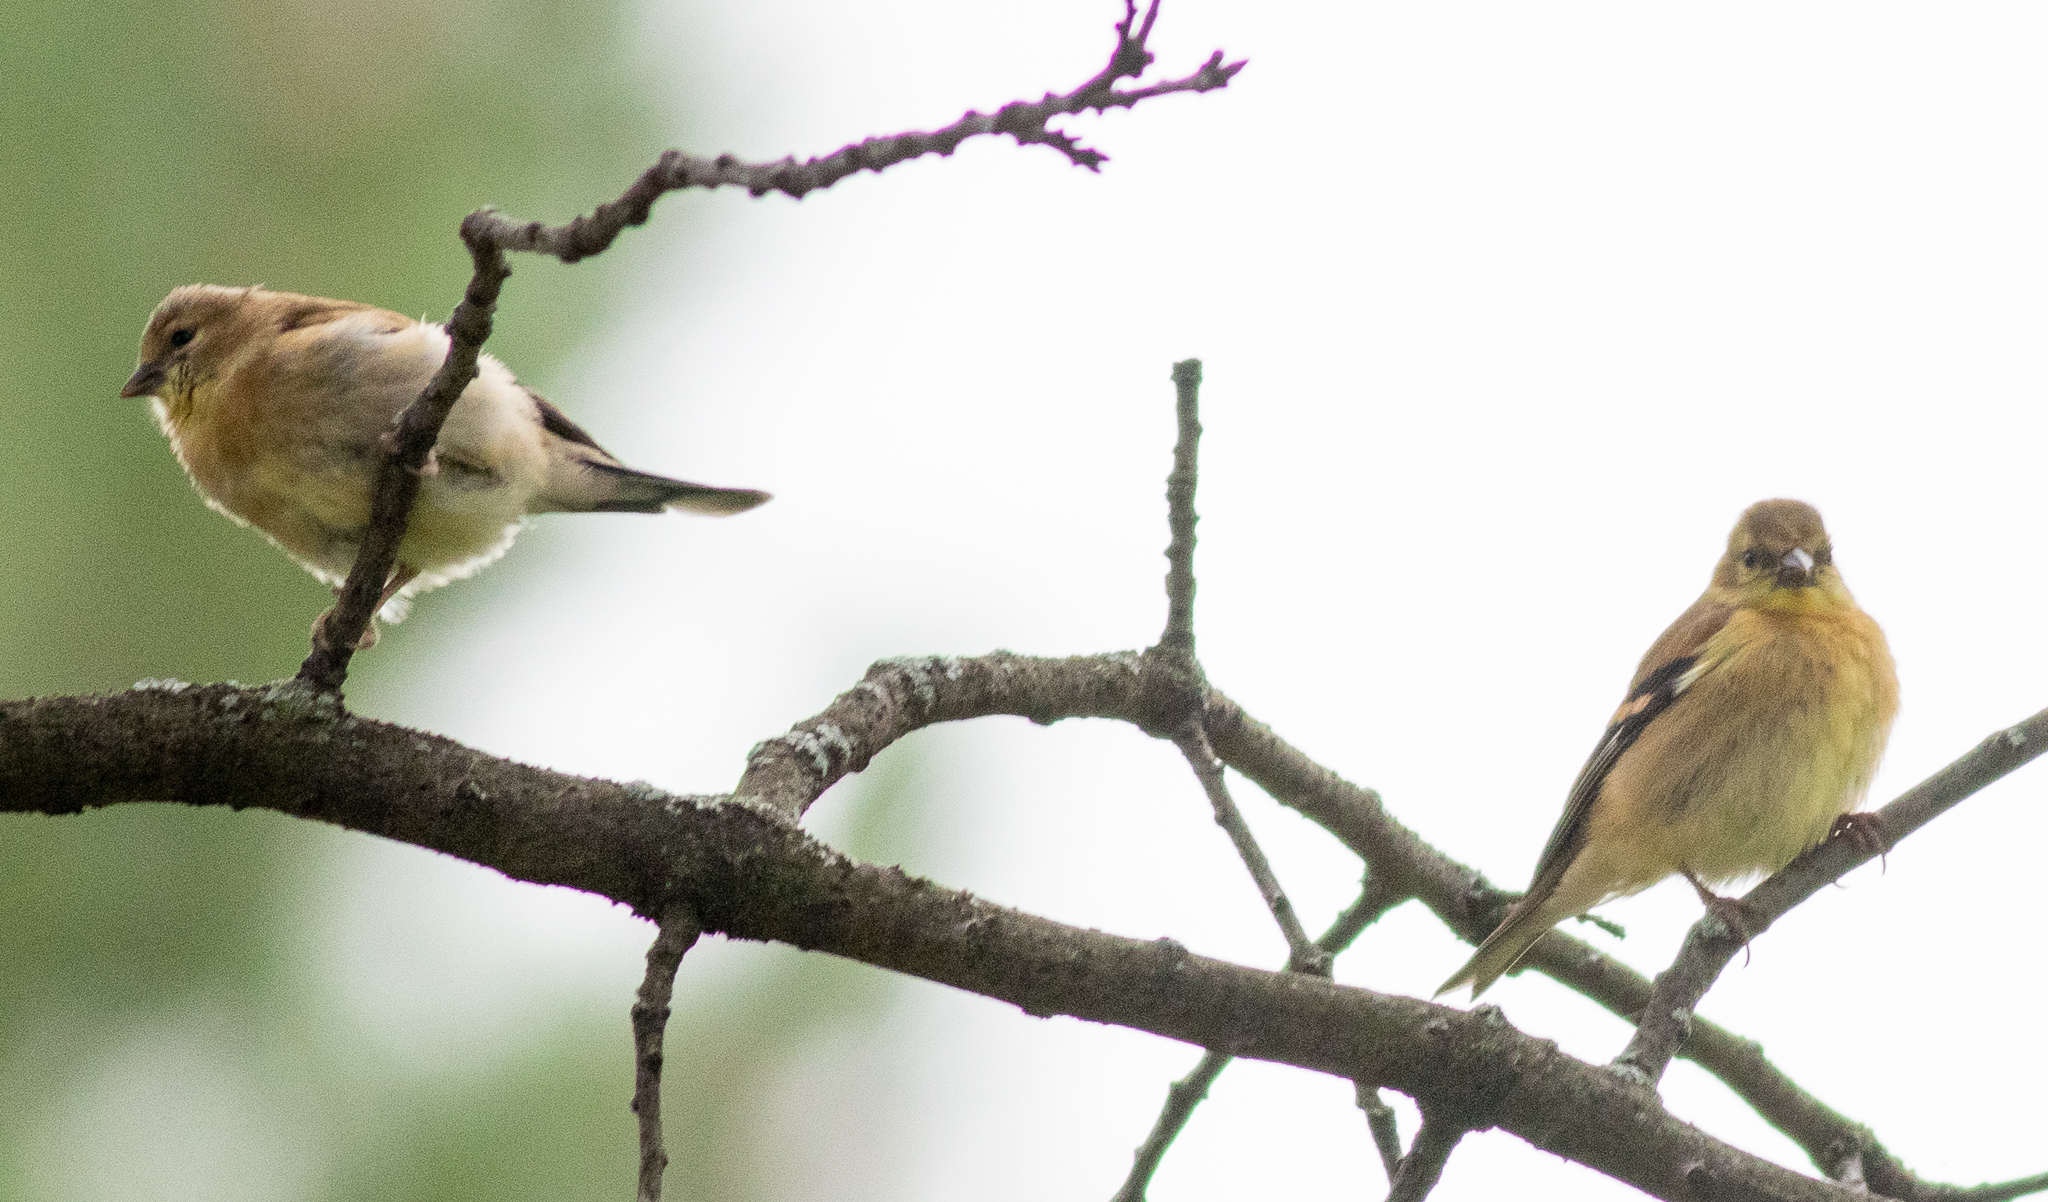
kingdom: Animalia
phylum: Chordata
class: Aves
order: Passeriformes
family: Fringillidae
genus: Spinus
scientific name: Spinus tristis
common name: American goldfinch
